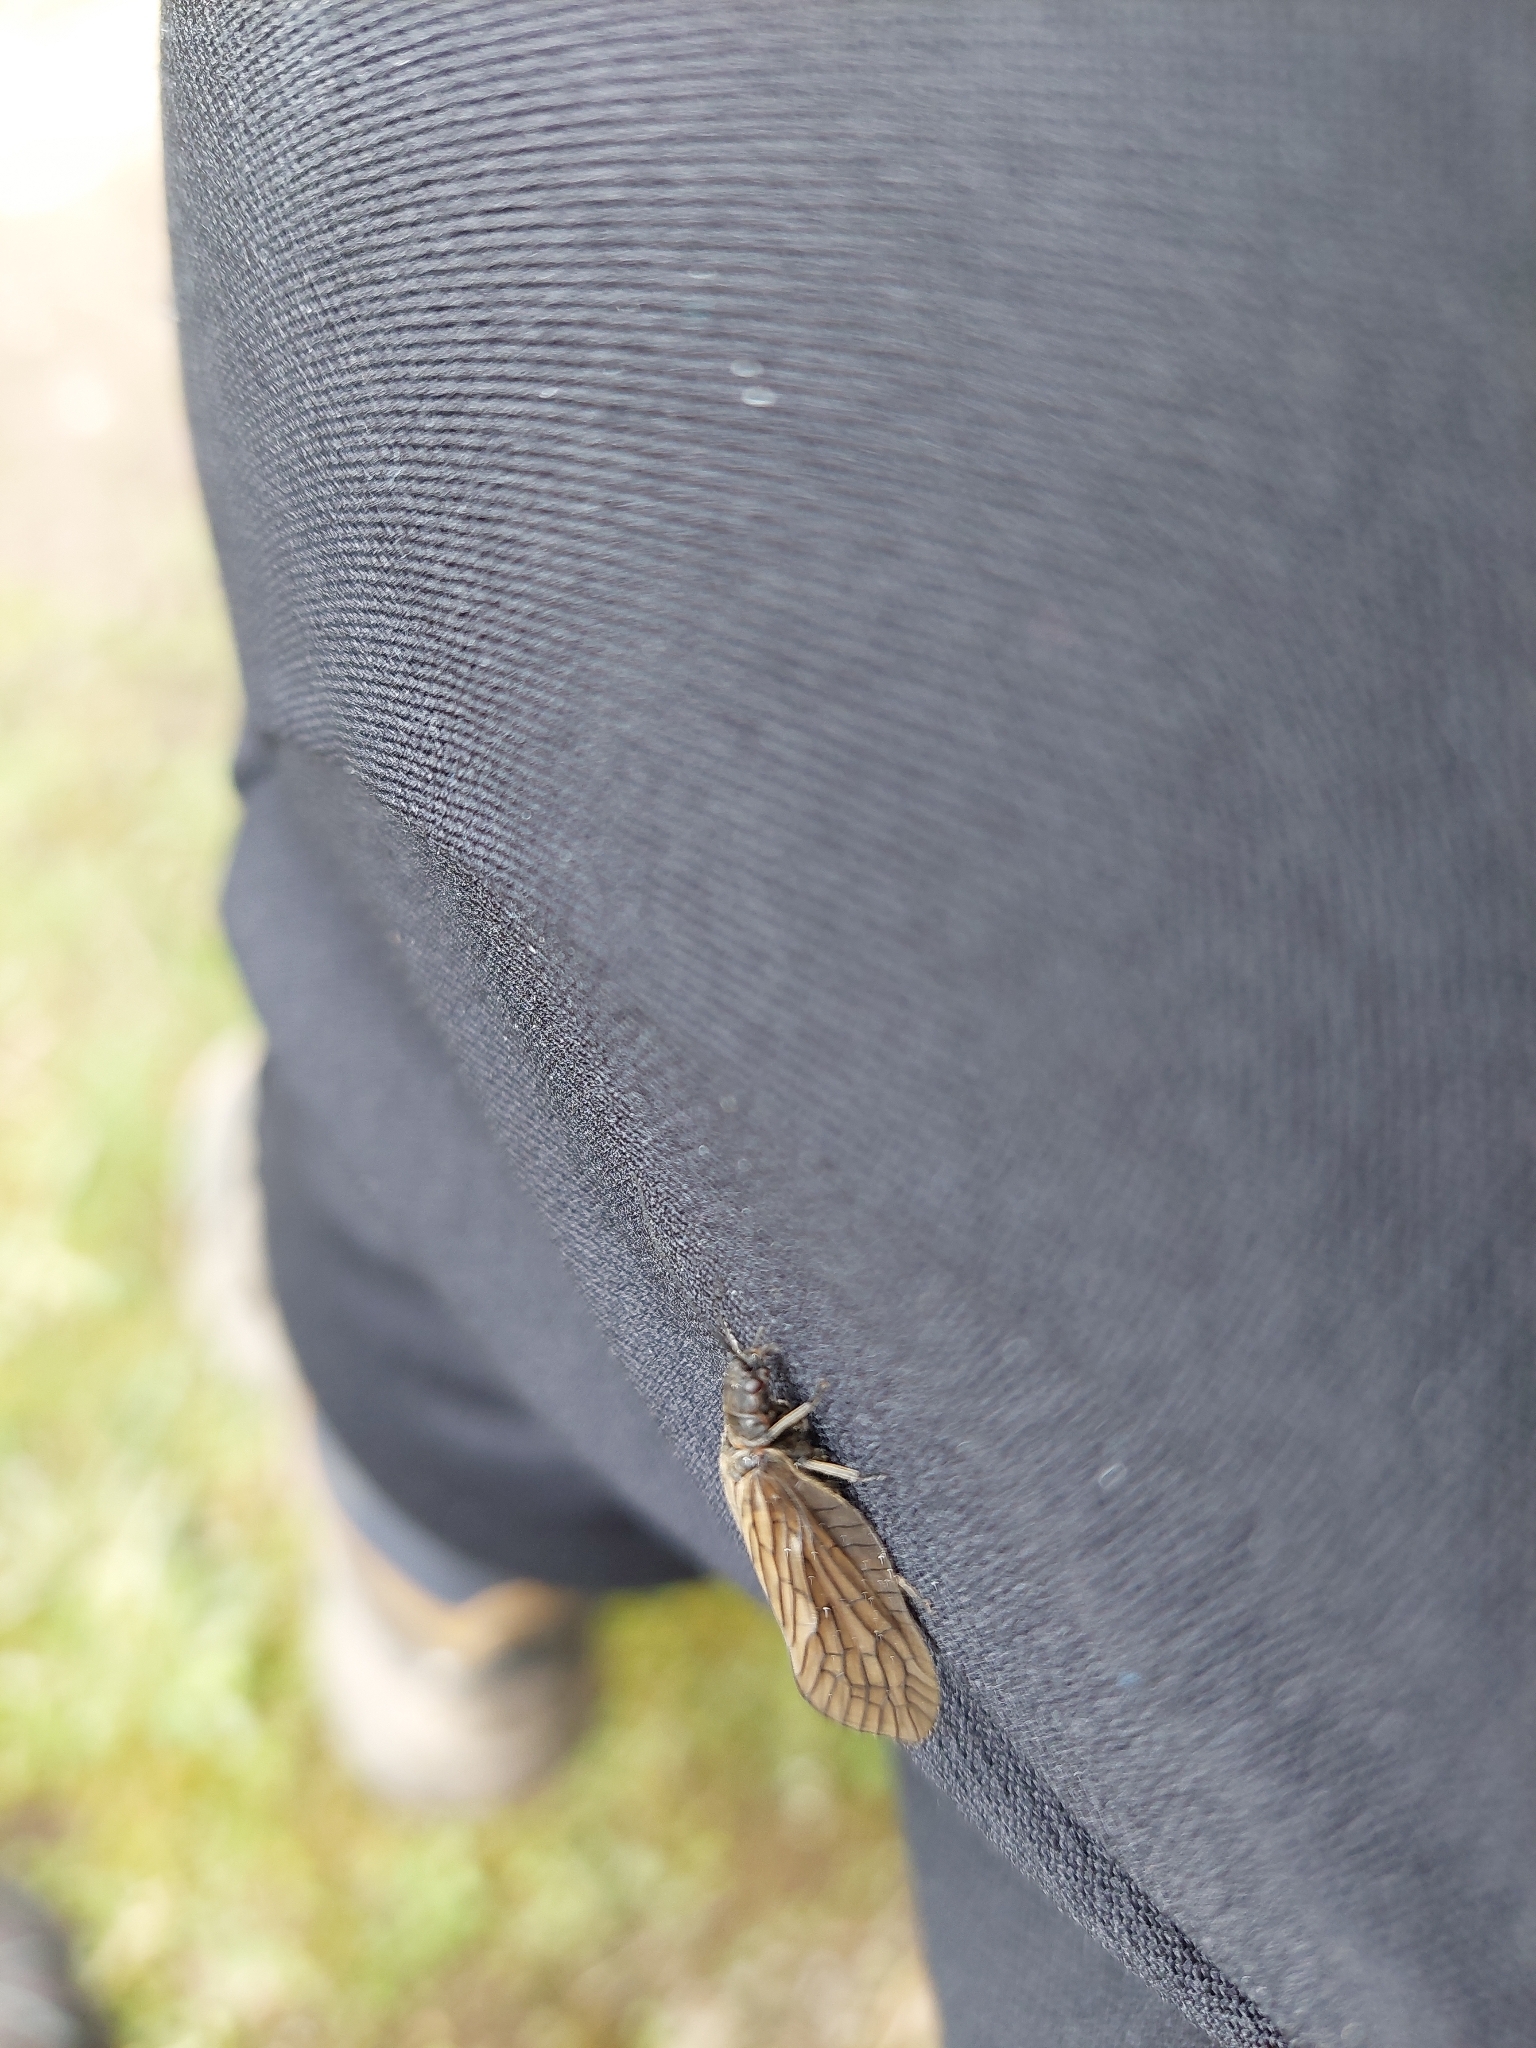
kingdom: Animalia
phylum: Arthropoda
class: Insecta
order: Megaloptera
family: Sialidae
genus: Sialis
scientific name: Sialis
